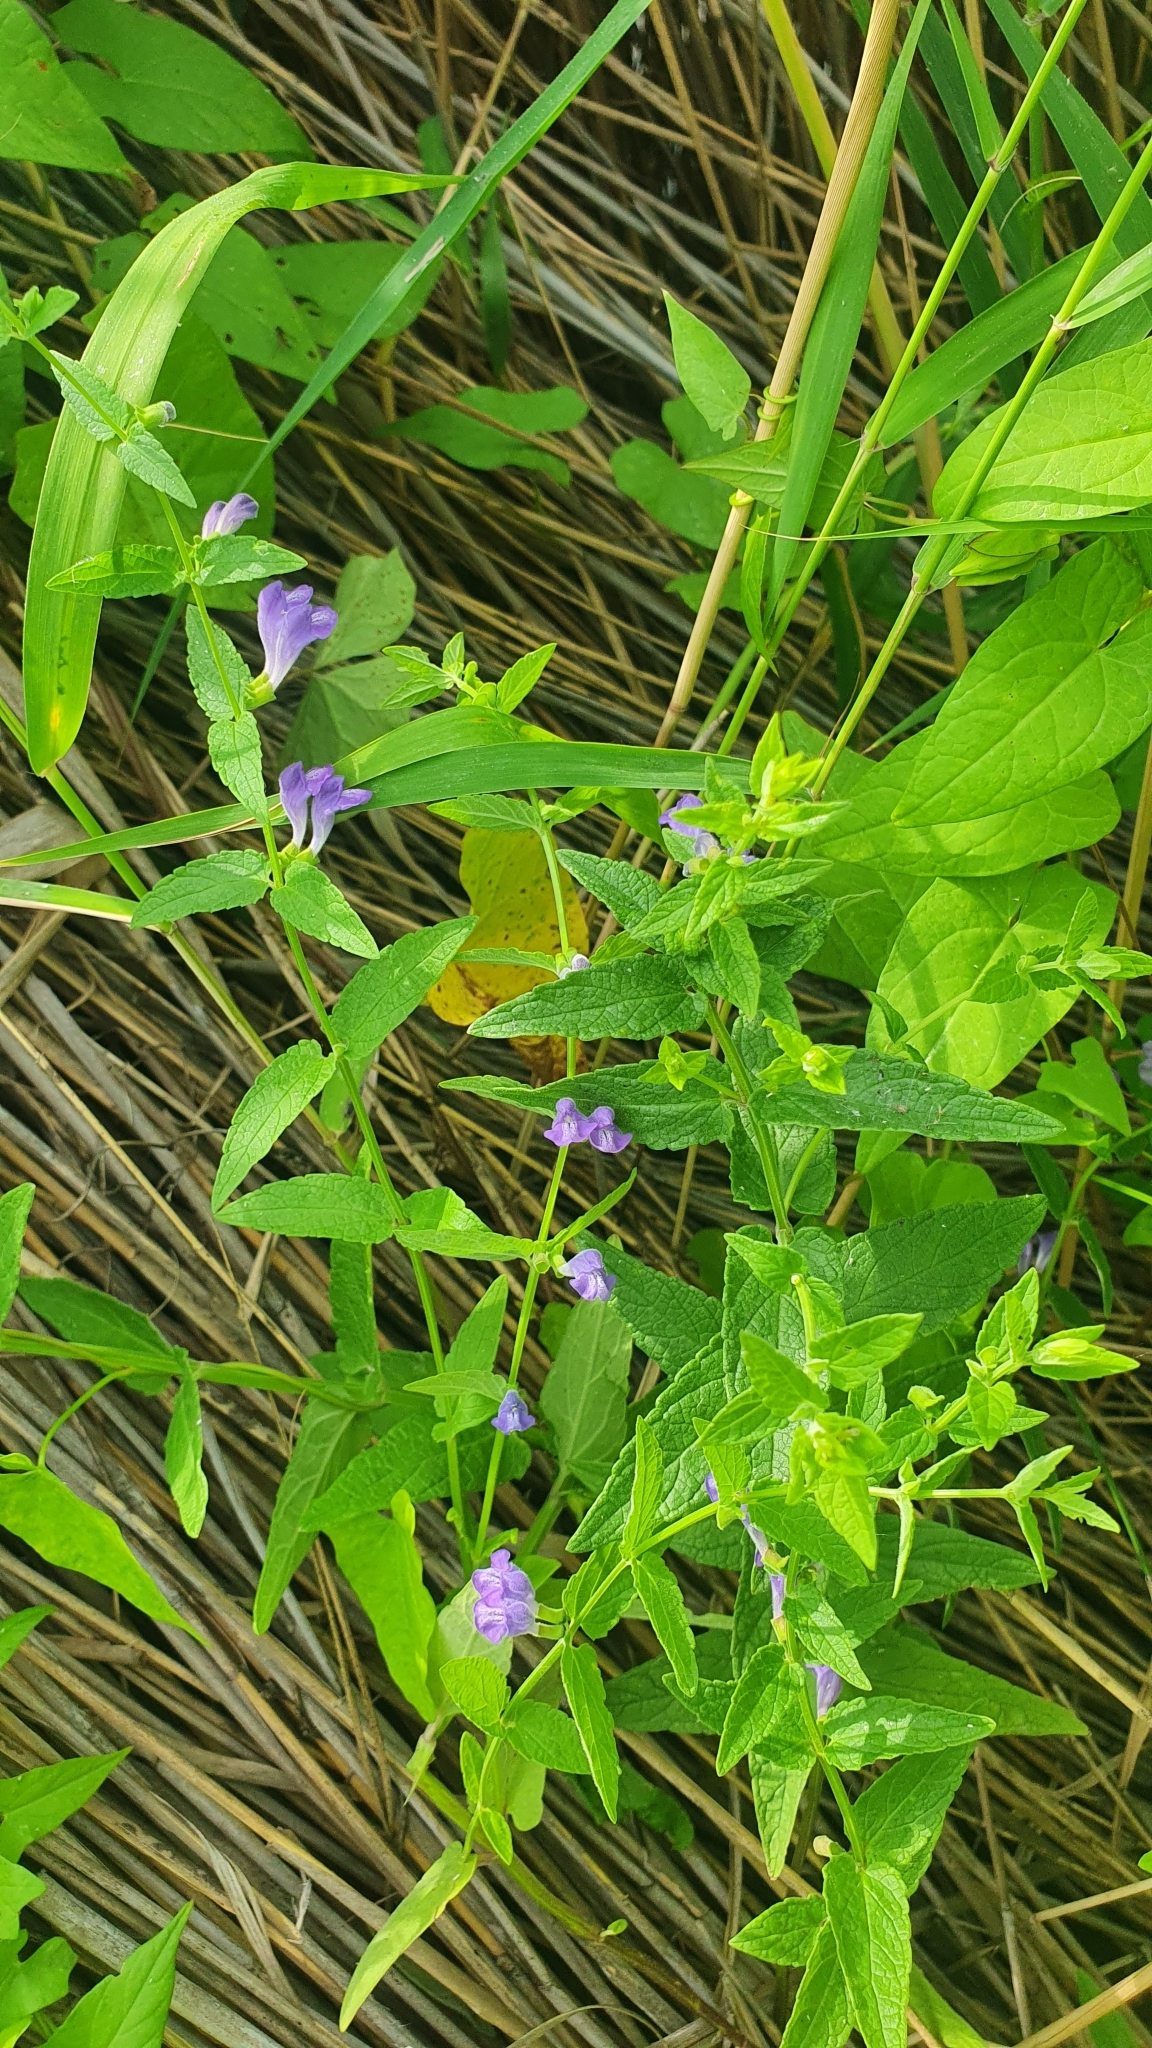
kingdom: Plantae
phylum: Tracheophyta
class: Magnoliopsida
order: Lamiales
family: Lamiaceae
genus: Scutellaria
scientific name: Scutellaria galericulata
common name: Skullcap
